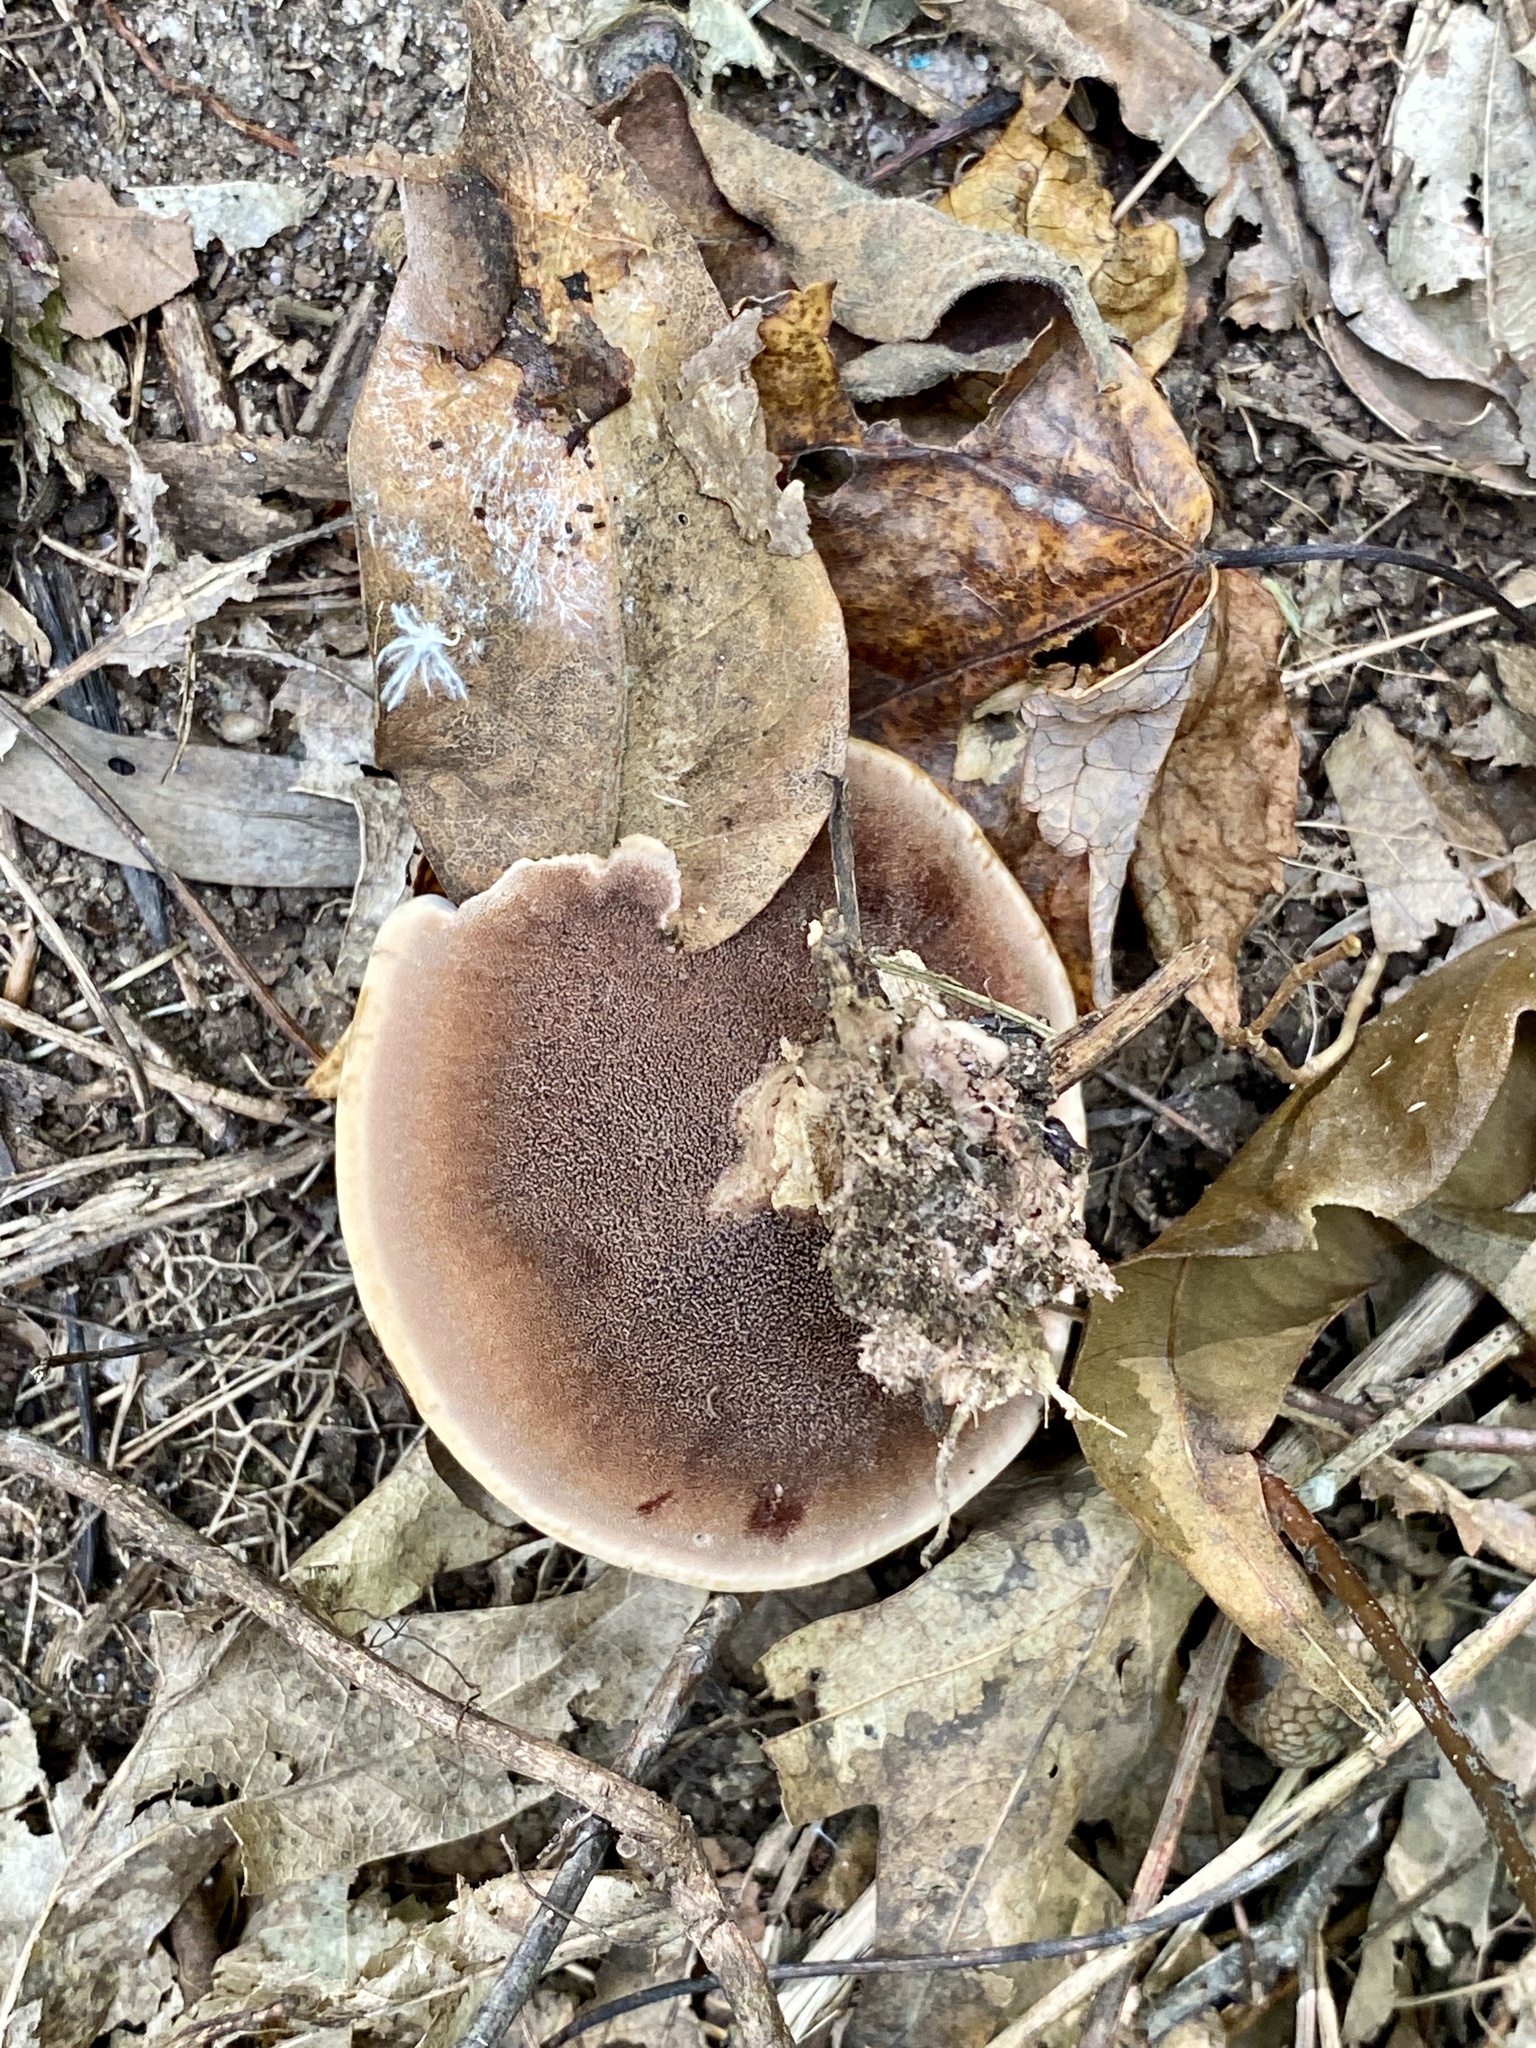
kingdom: Fungi
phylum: Basidiomycota
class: Agaricomycetes
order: Thelephorales
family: Bankeraceae
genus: Hydnellum
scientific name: Hydnellum concrescens
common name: Zoned tooth
